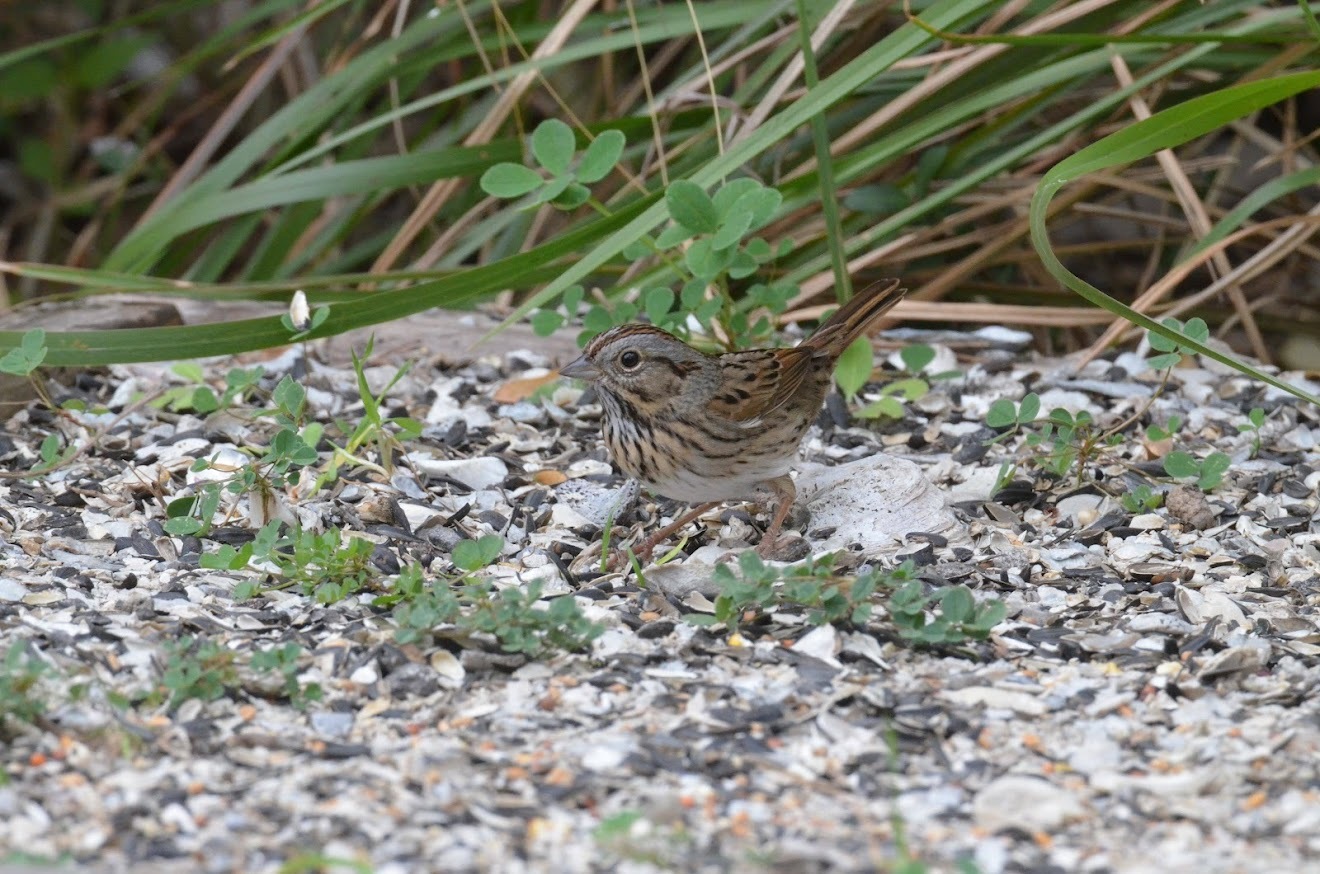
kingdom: Animalia
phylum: Chordata
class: Aves
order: Passeriformes
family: Passerellidae
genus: Melospiza
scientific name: Melospiza lincolnii
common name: Lincoln's sparrow
